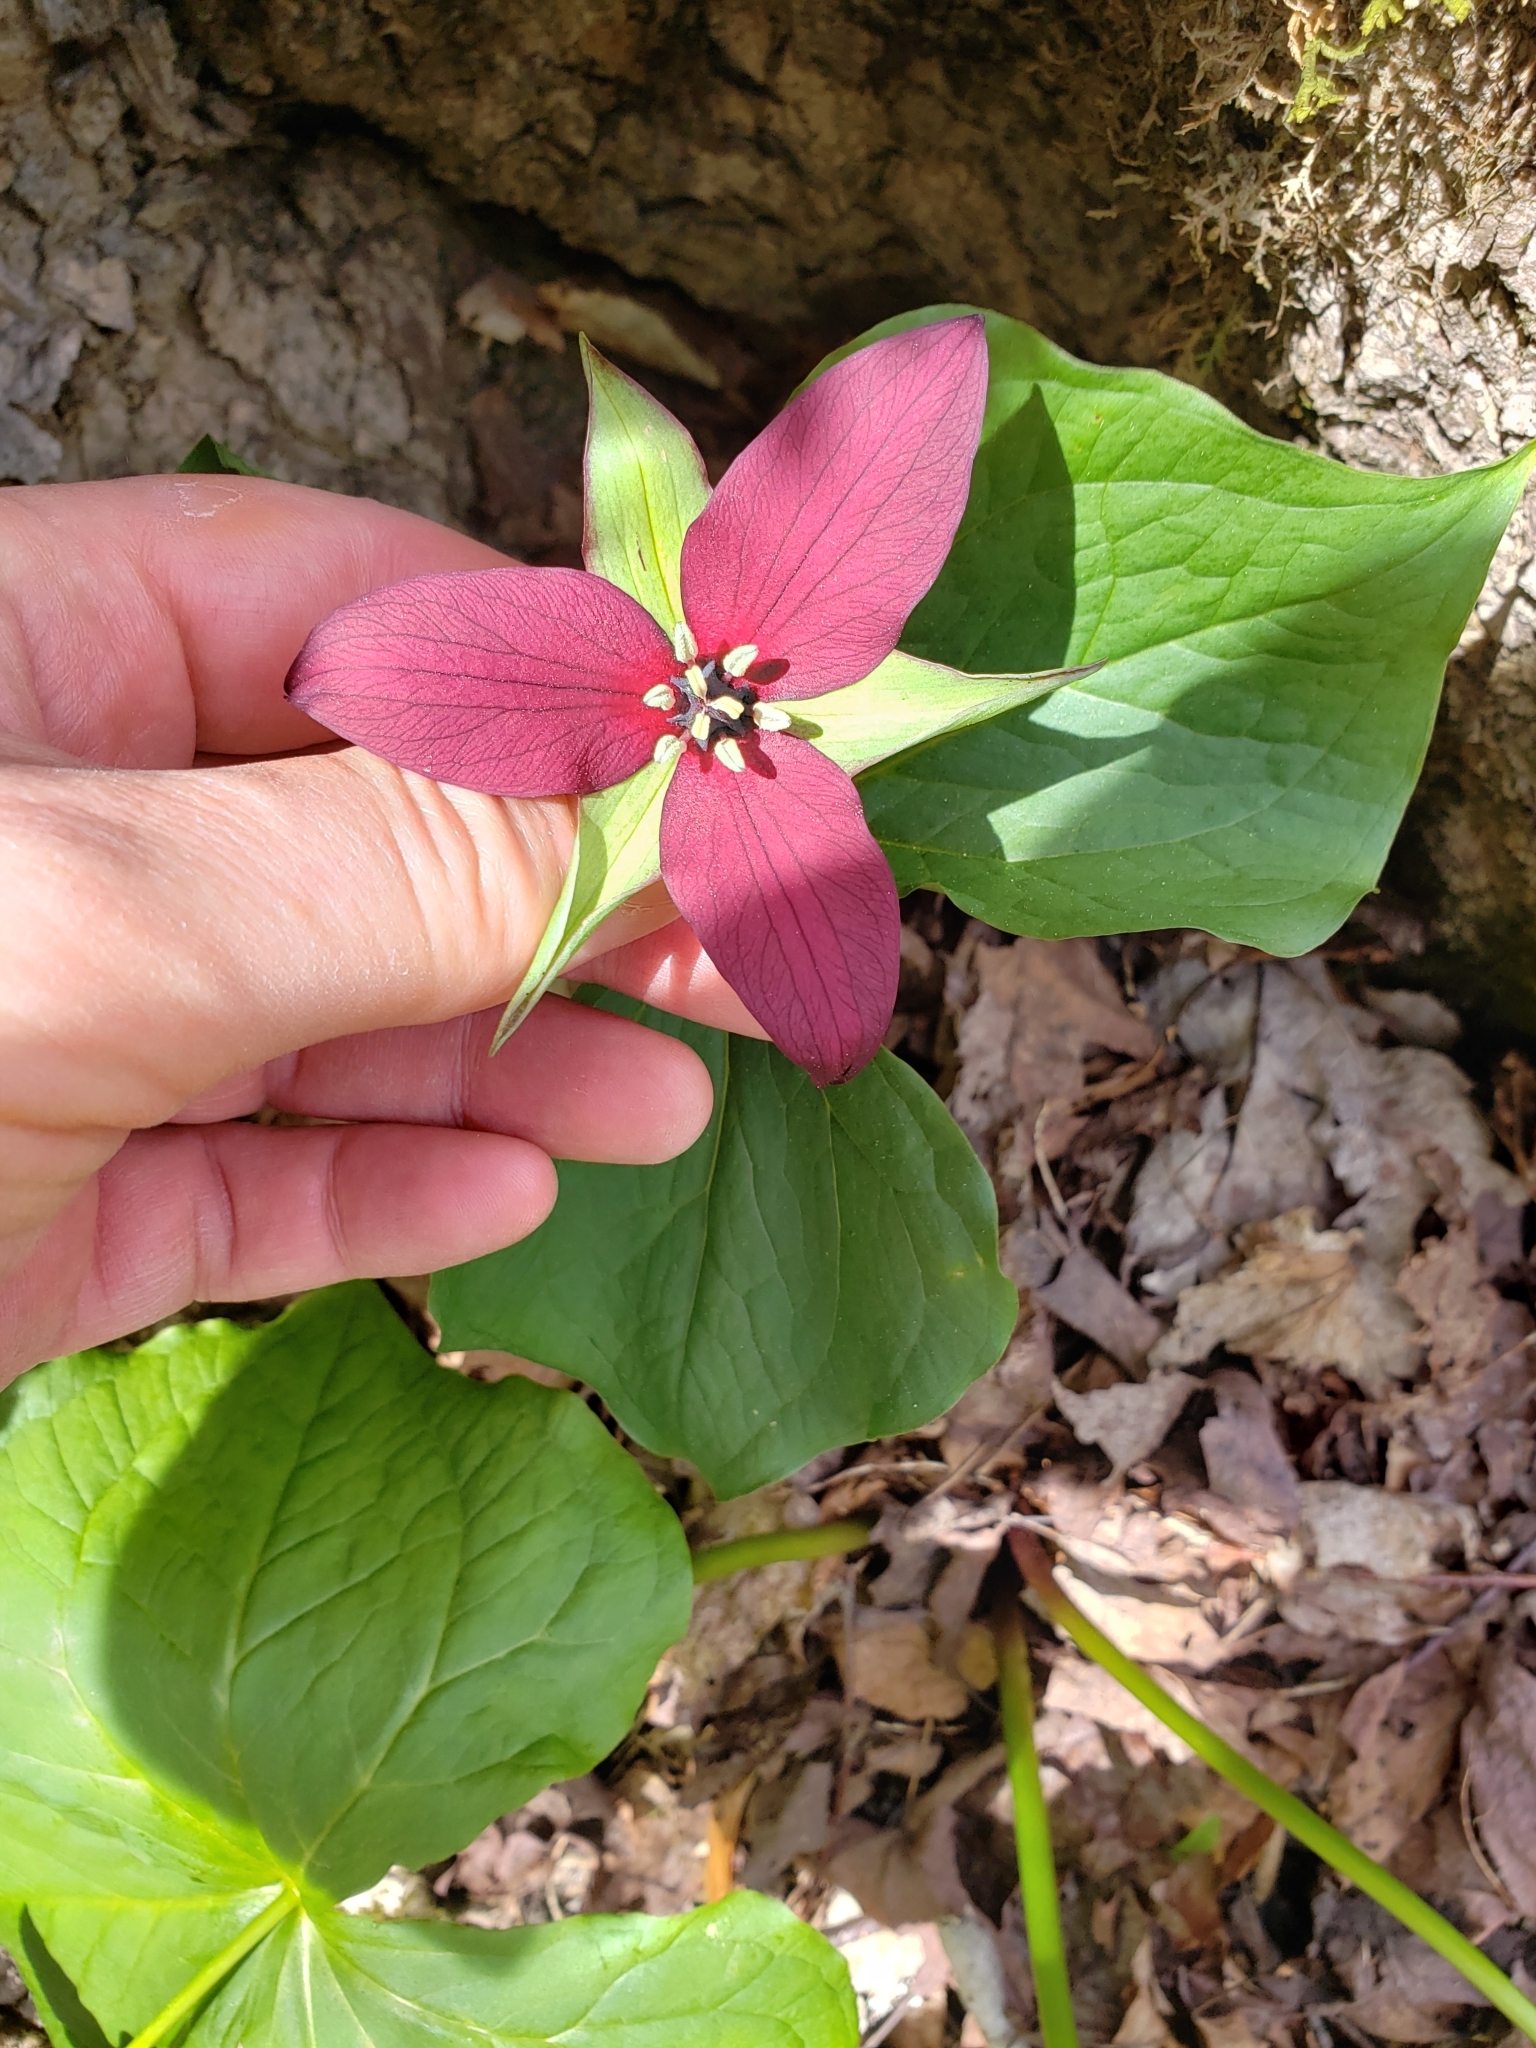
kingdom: Plantae
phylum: Tracheophyta
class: Liliopsida
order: Liliales
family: Melanthiaceae
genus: Trillium
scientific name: Trillium erectum
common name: Purple trillium
